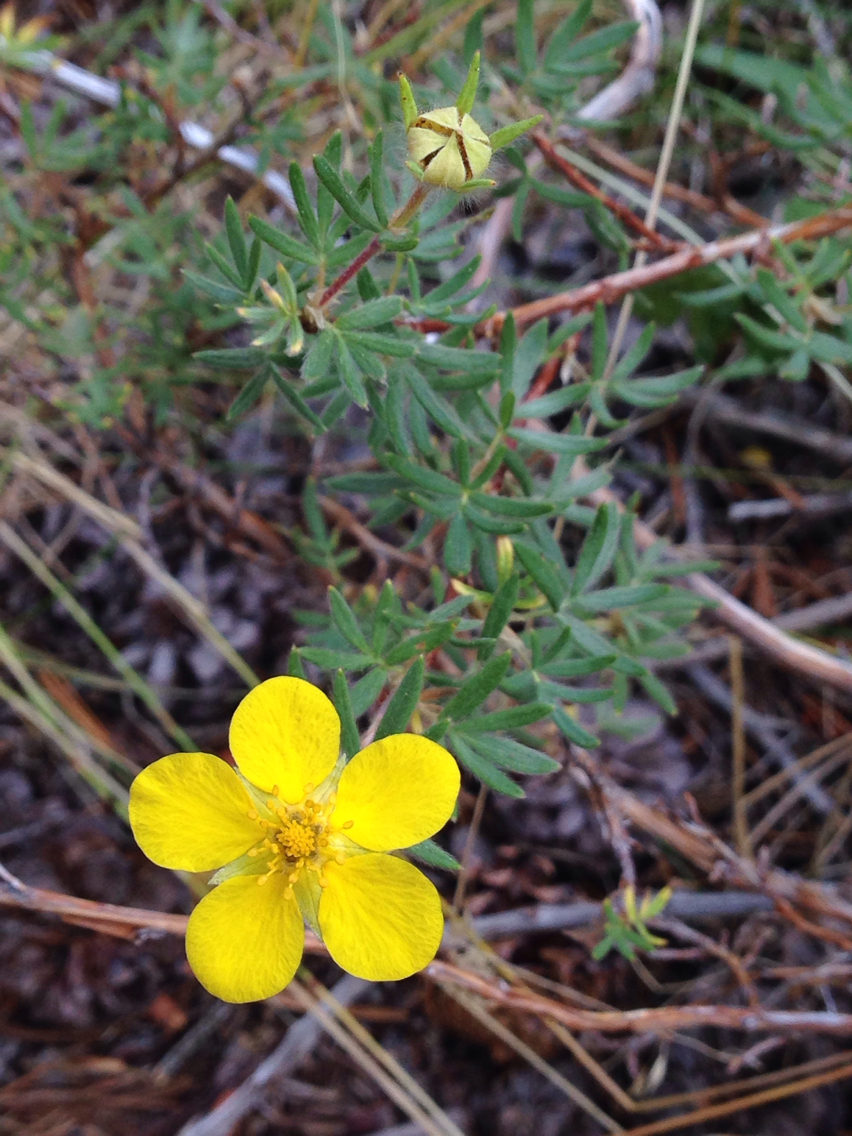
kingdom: Plantae
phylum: Tracheophyta
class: Magnoliopsida
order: Rosales
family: Rosaceae
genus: Dasiphora
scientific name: Dasiphora fruticosa
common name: Shrubby cinquefoil
